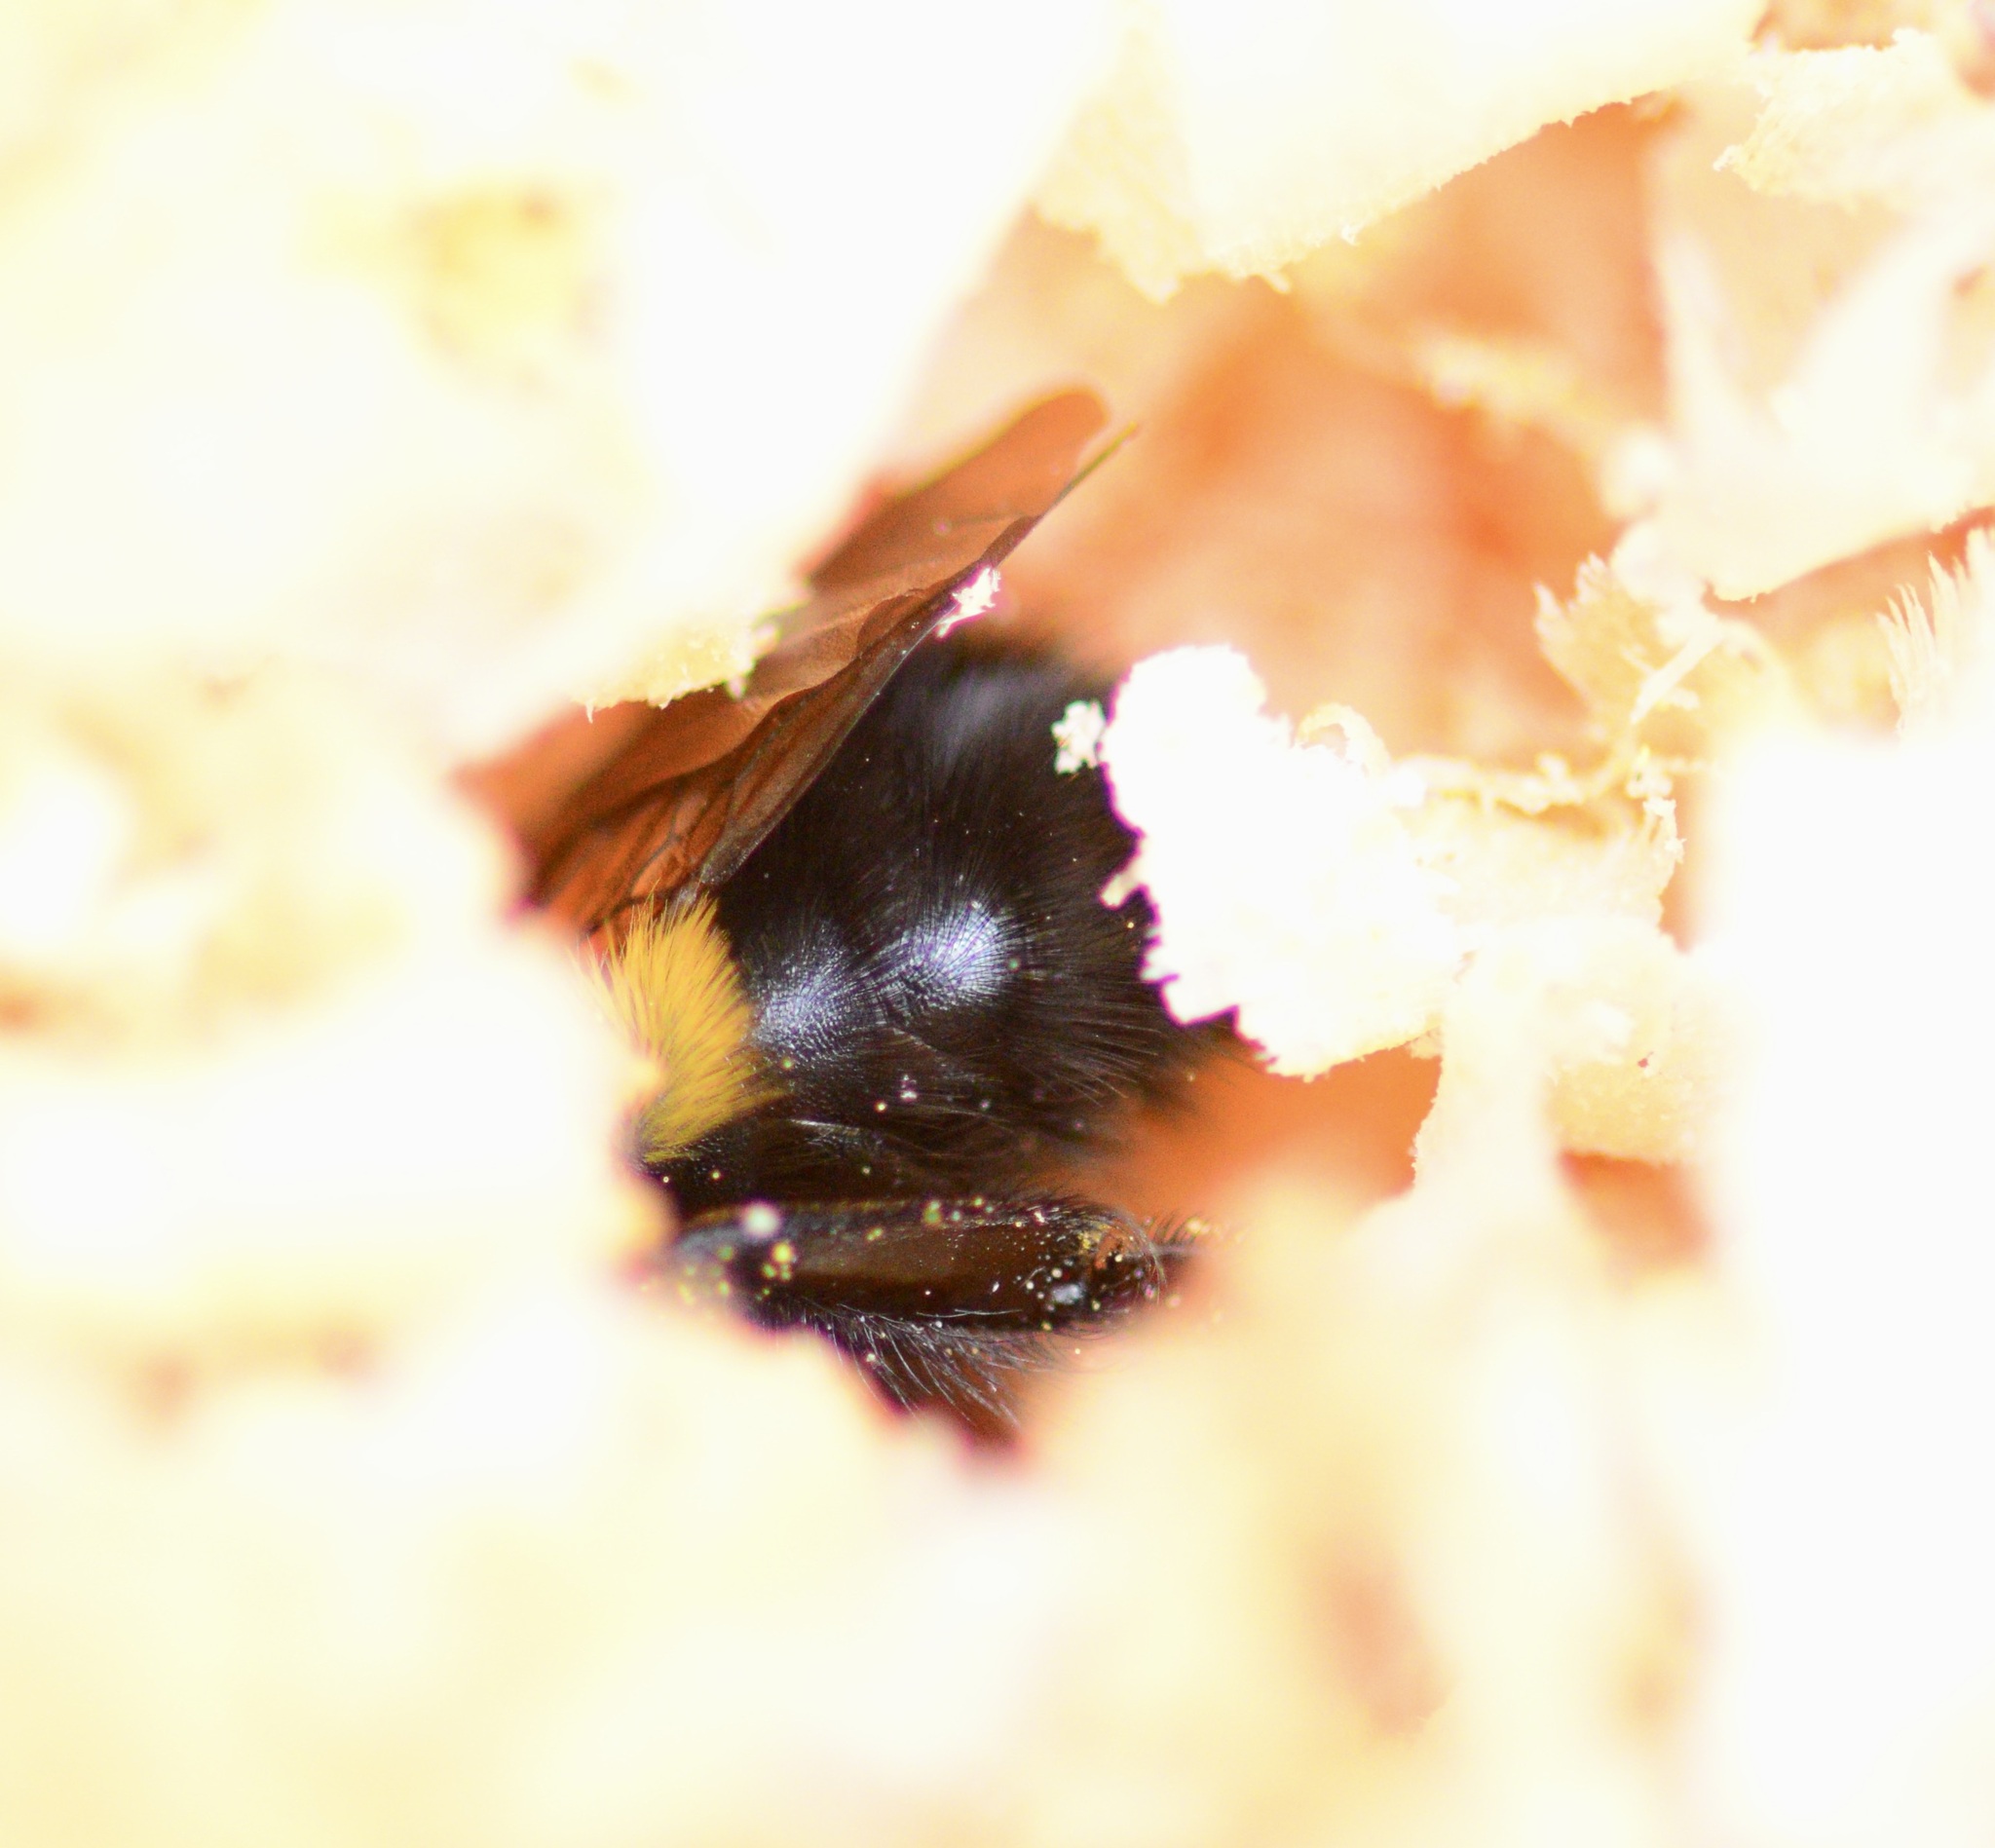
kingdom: Animalia
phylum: Arthropoda
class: Insecta
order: Hymenoptera
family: Apidae
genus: Pyrobombus
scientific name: Pyrobombus
